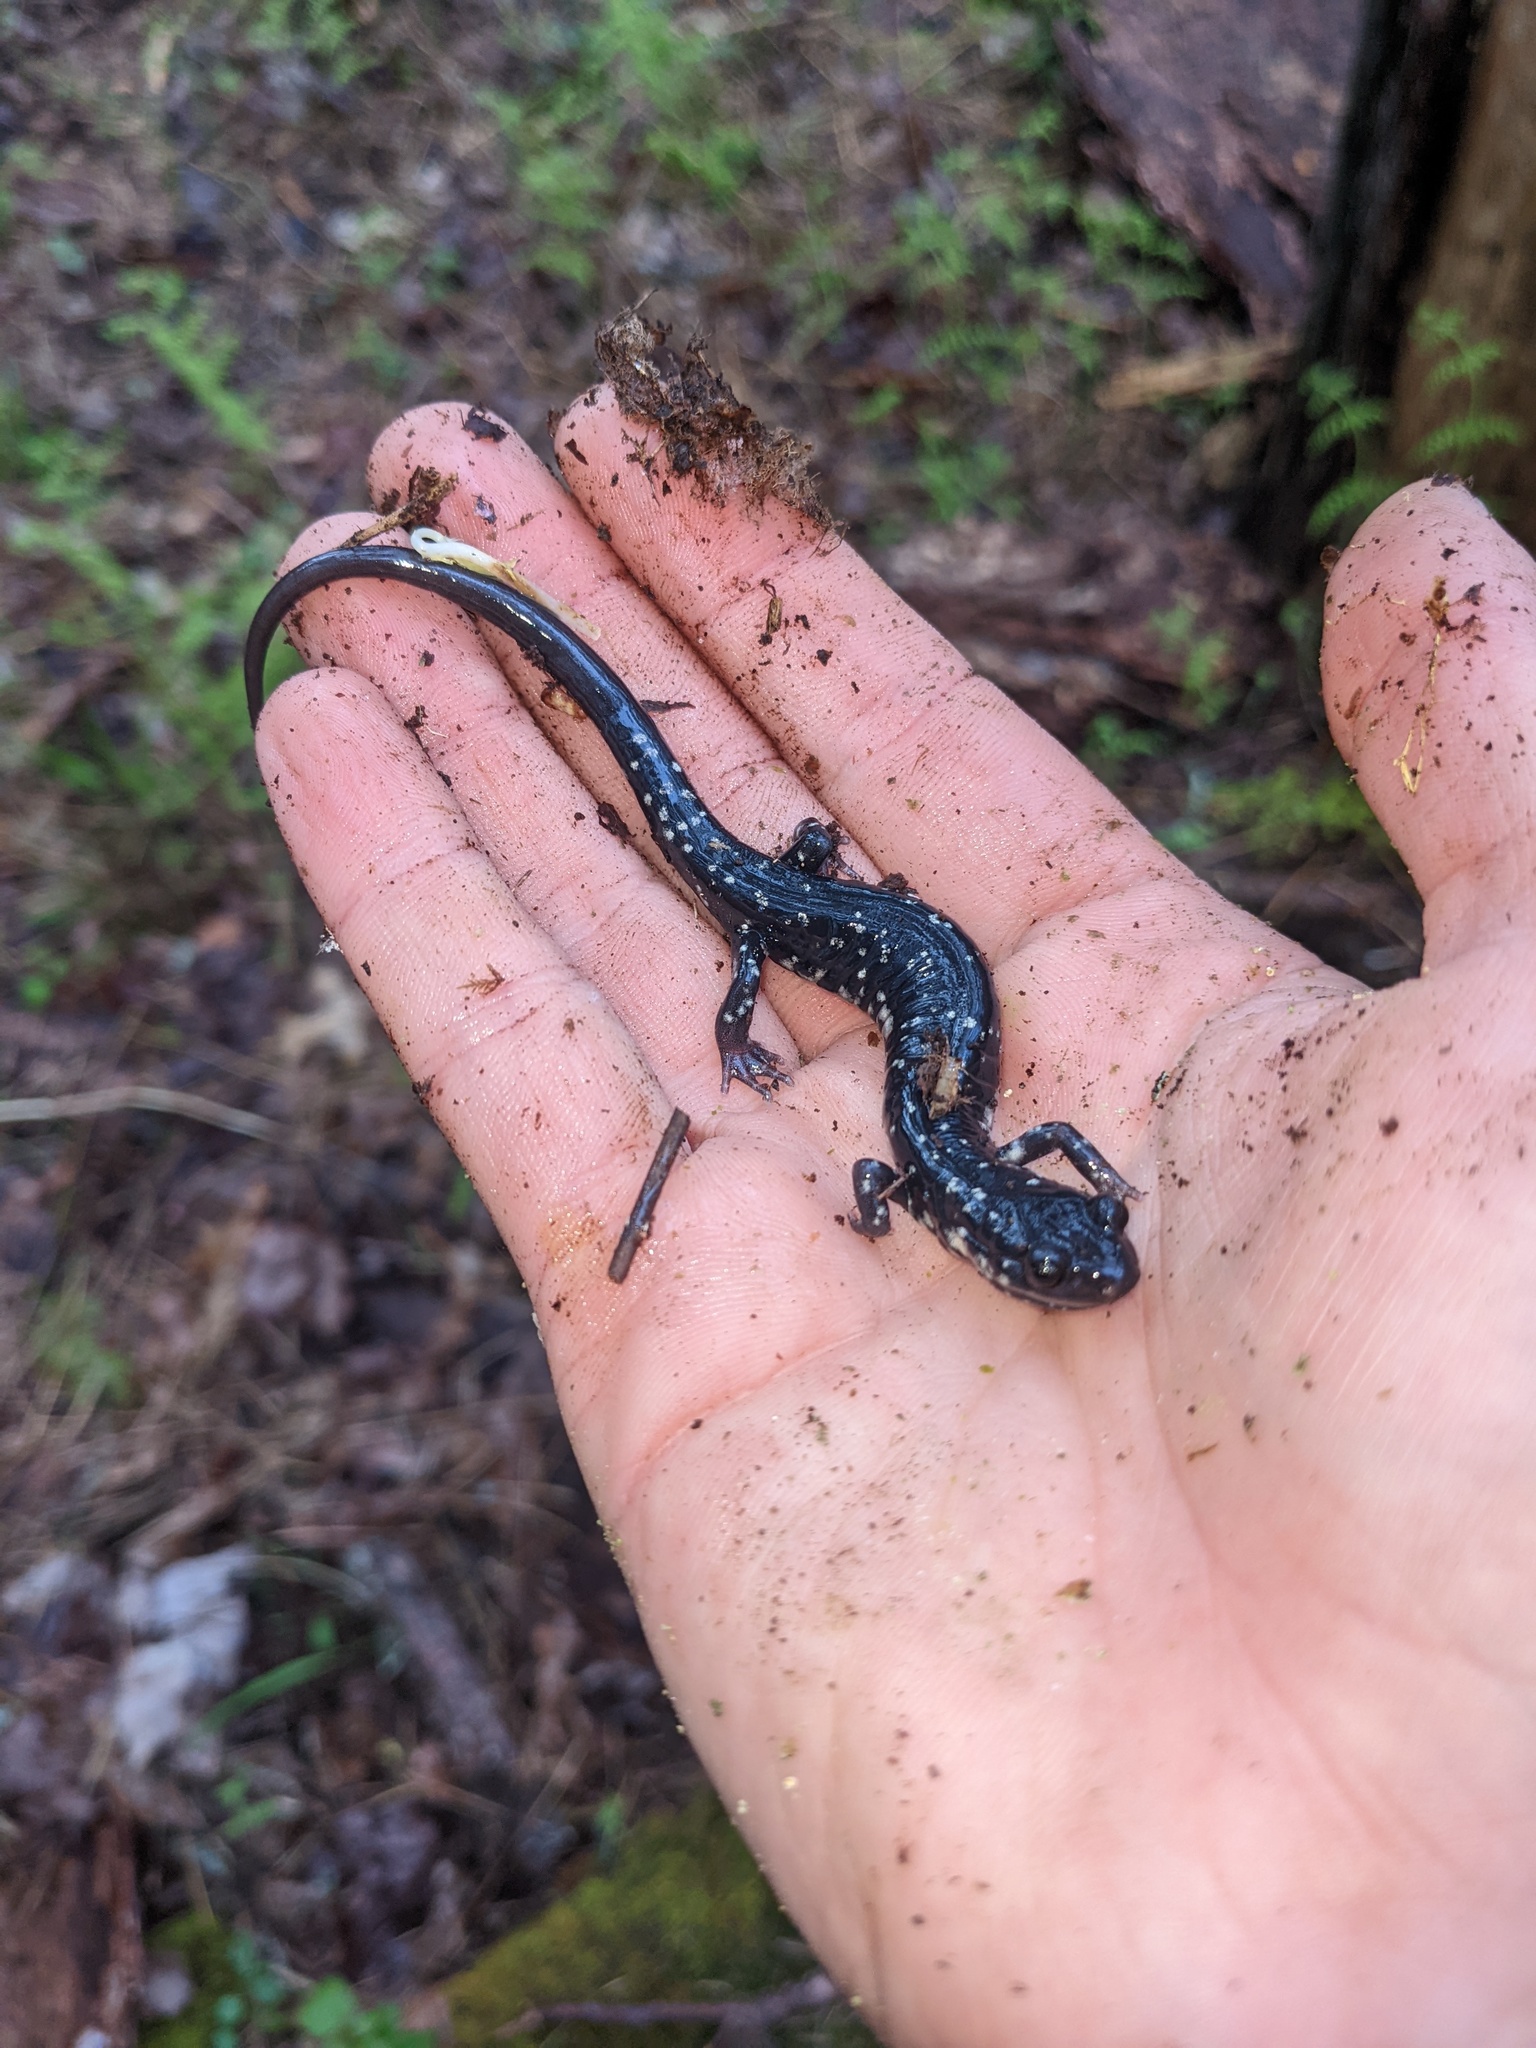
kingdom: Animalia
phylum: Chordata
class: Amphibia
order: Caudata
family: Plethodontidae
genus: Plethodon
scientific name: Plethodon glutinosus
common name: Northern slimy salamander
